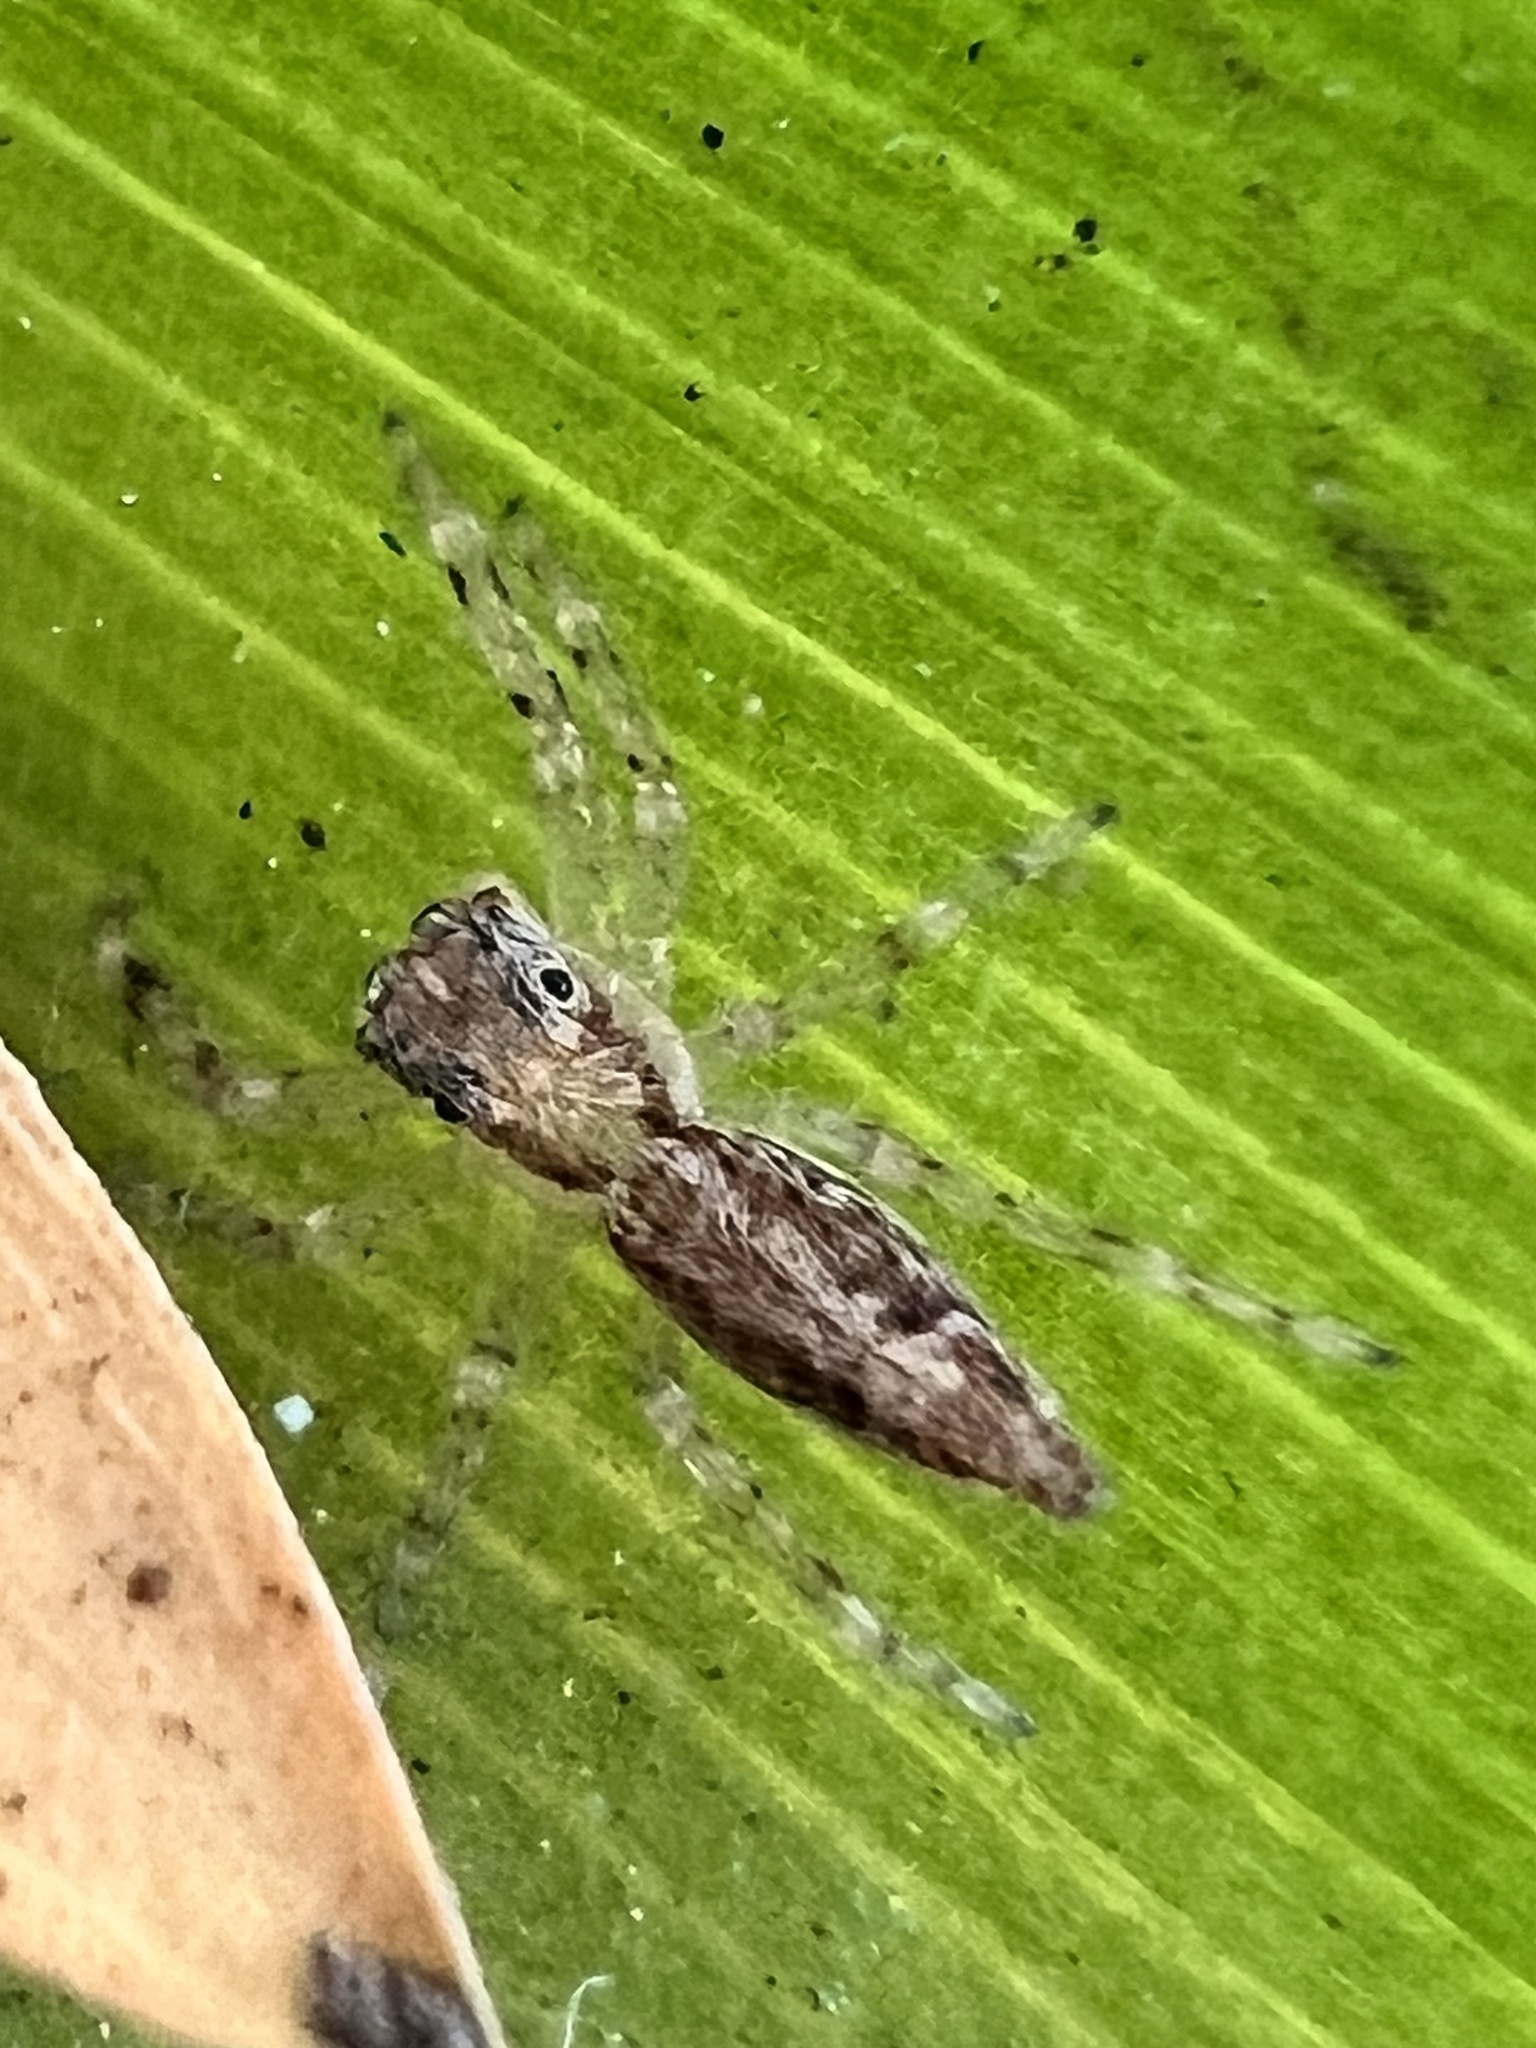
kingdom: Animalia
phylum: Arthropoda
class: Arachnida
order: Araneae
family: Salticidae
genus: Helpis
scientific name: Helpis minitabunda
